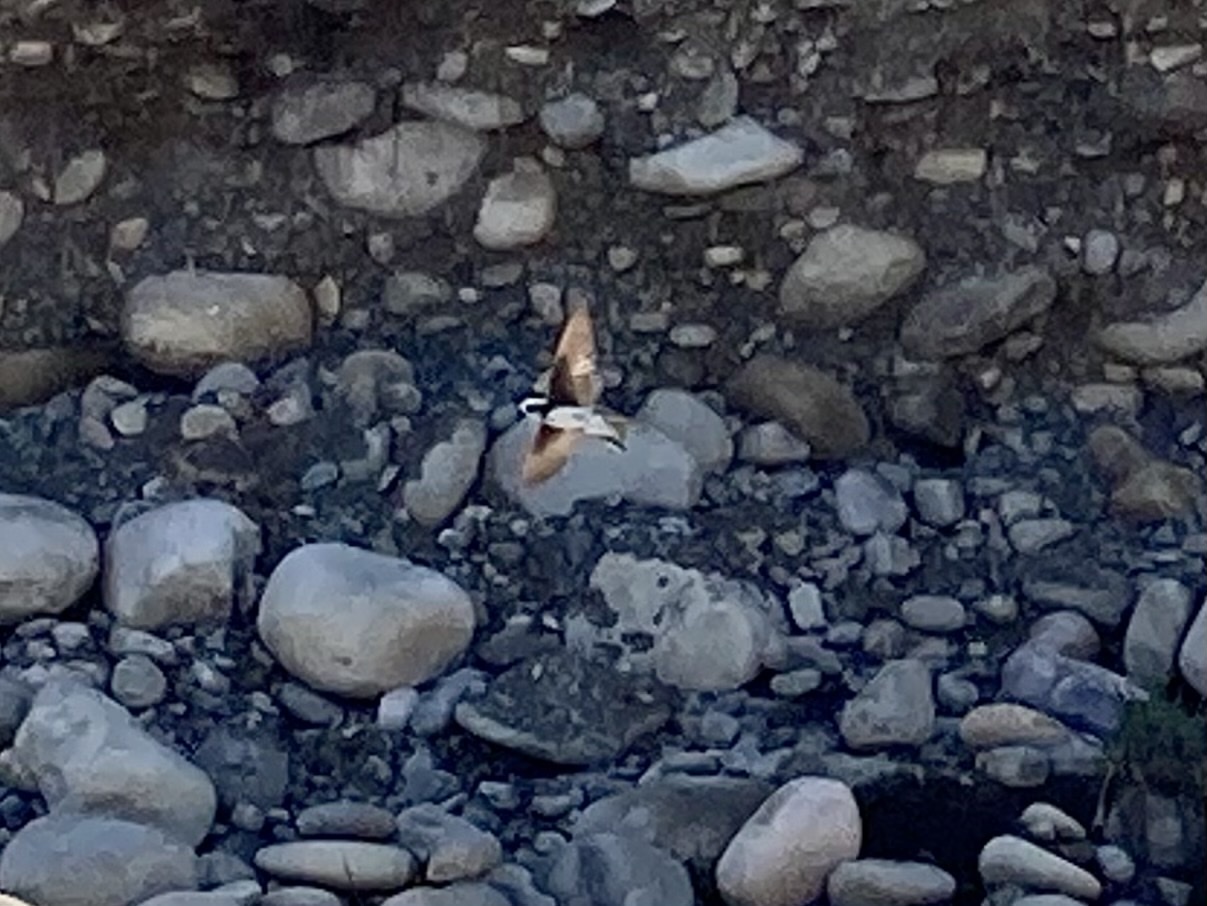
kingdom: Animalia
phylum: Chordata
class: Aves
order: Passeriformes
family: Hirundinidae
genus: Riparia
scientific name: Riparia riparia
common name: Sand martin
